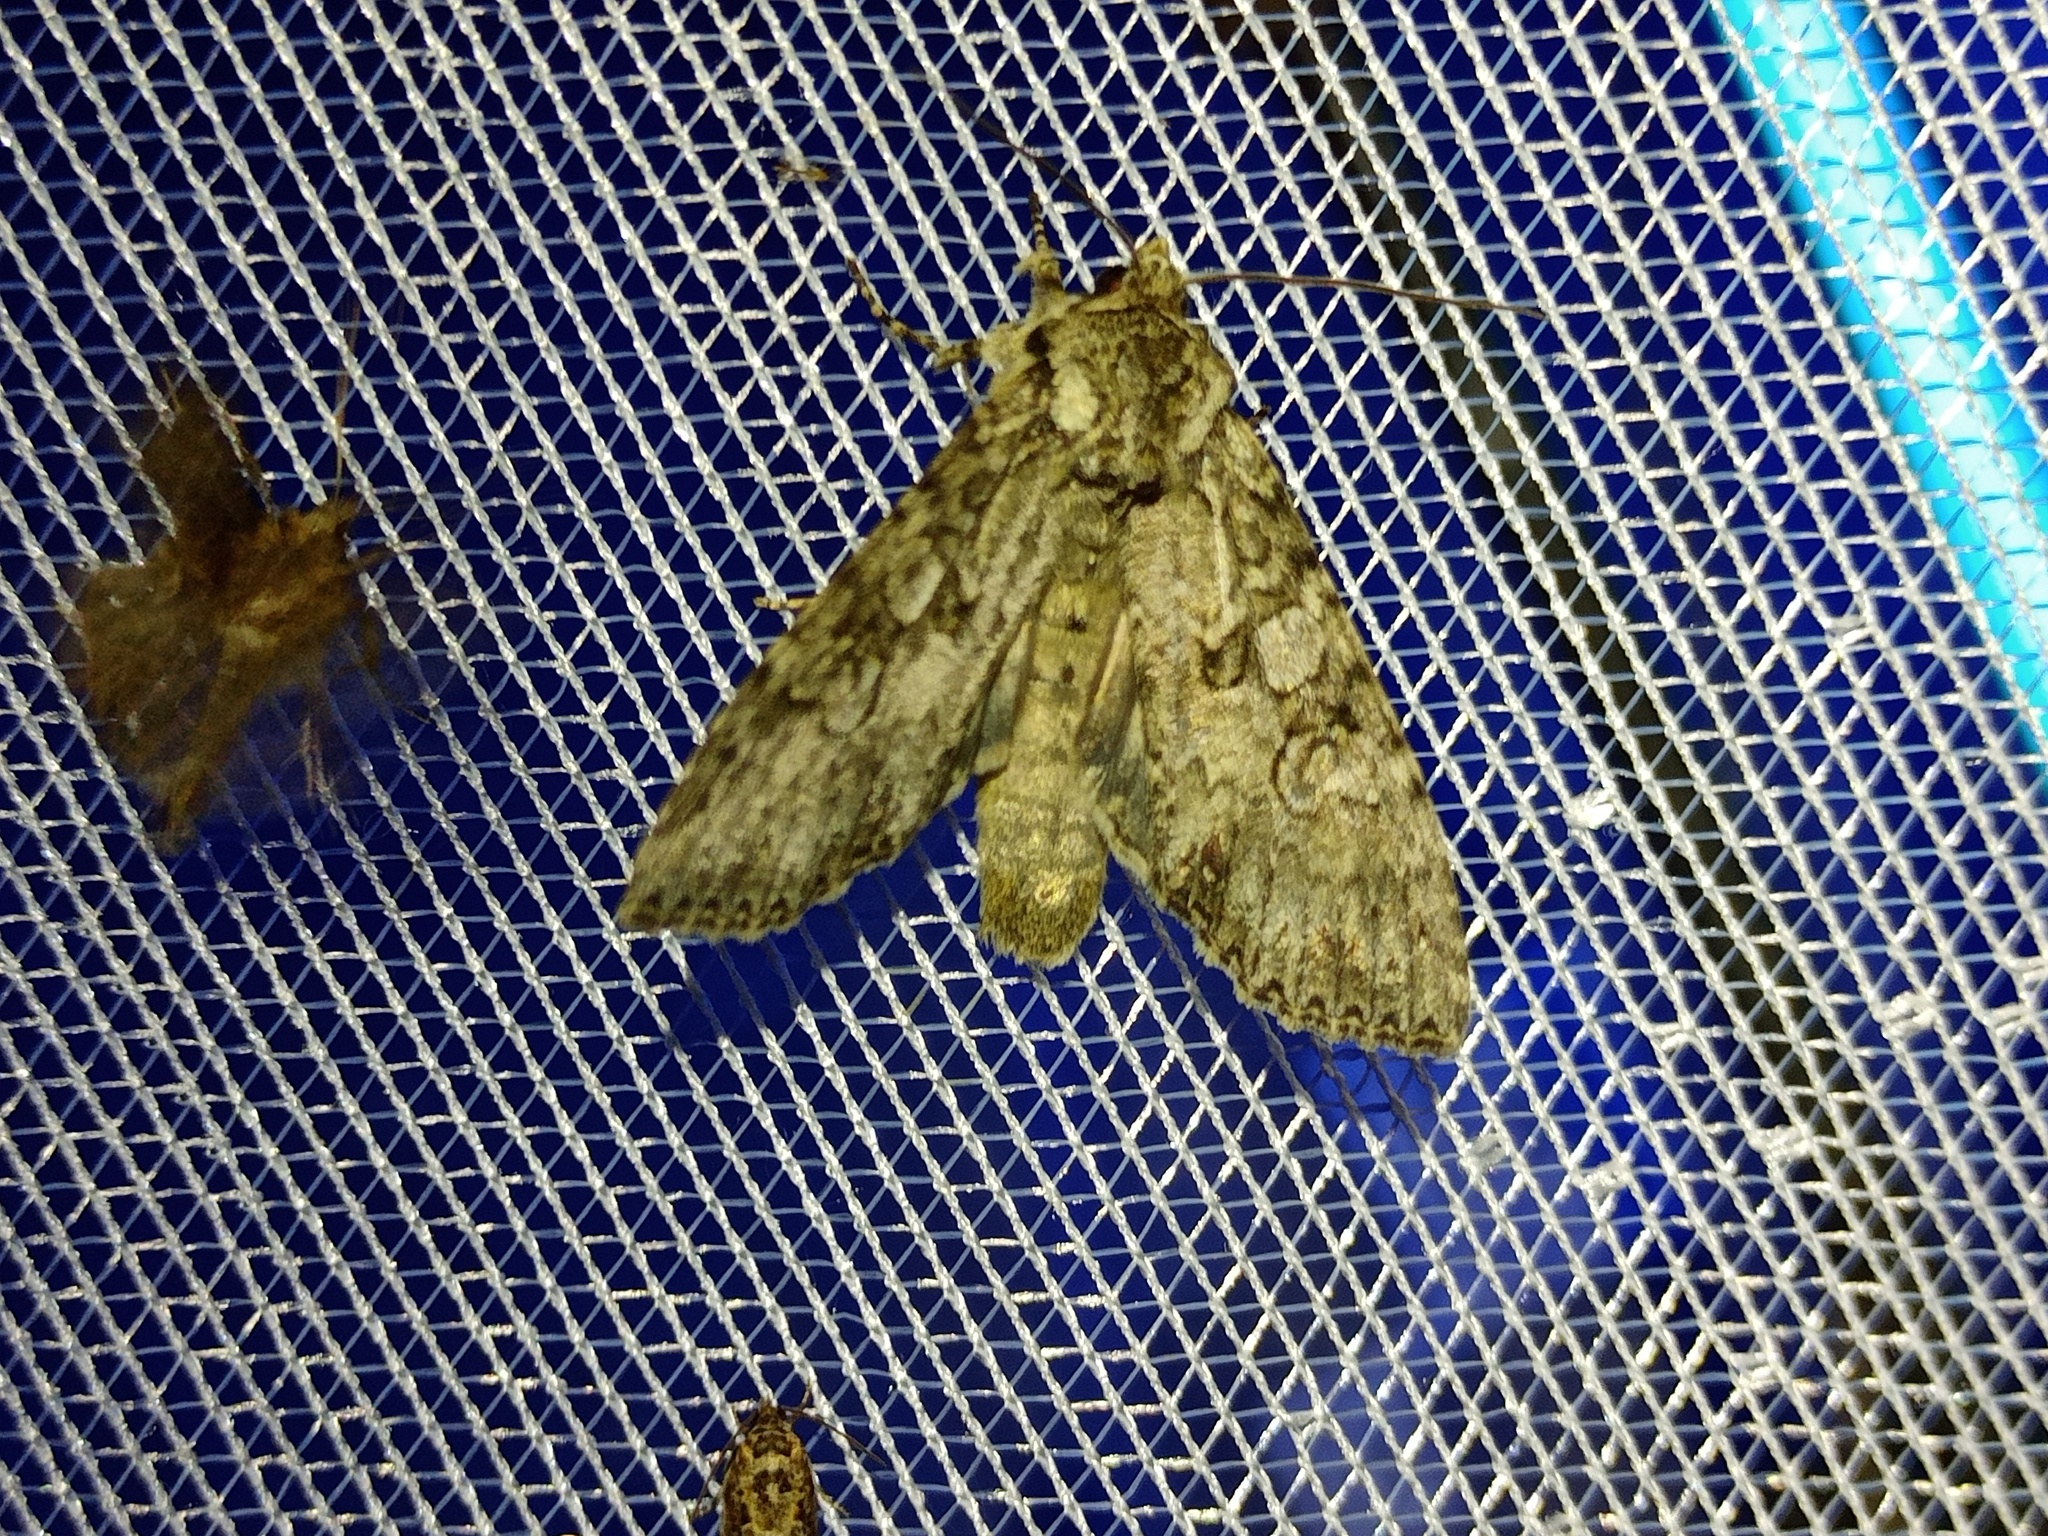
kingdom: Animalia
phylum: Arthropoda
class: Insecta
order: Lepidoptera
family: Noctuidae
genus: Polia
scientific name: Polia nebulosa
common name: Grey arches
